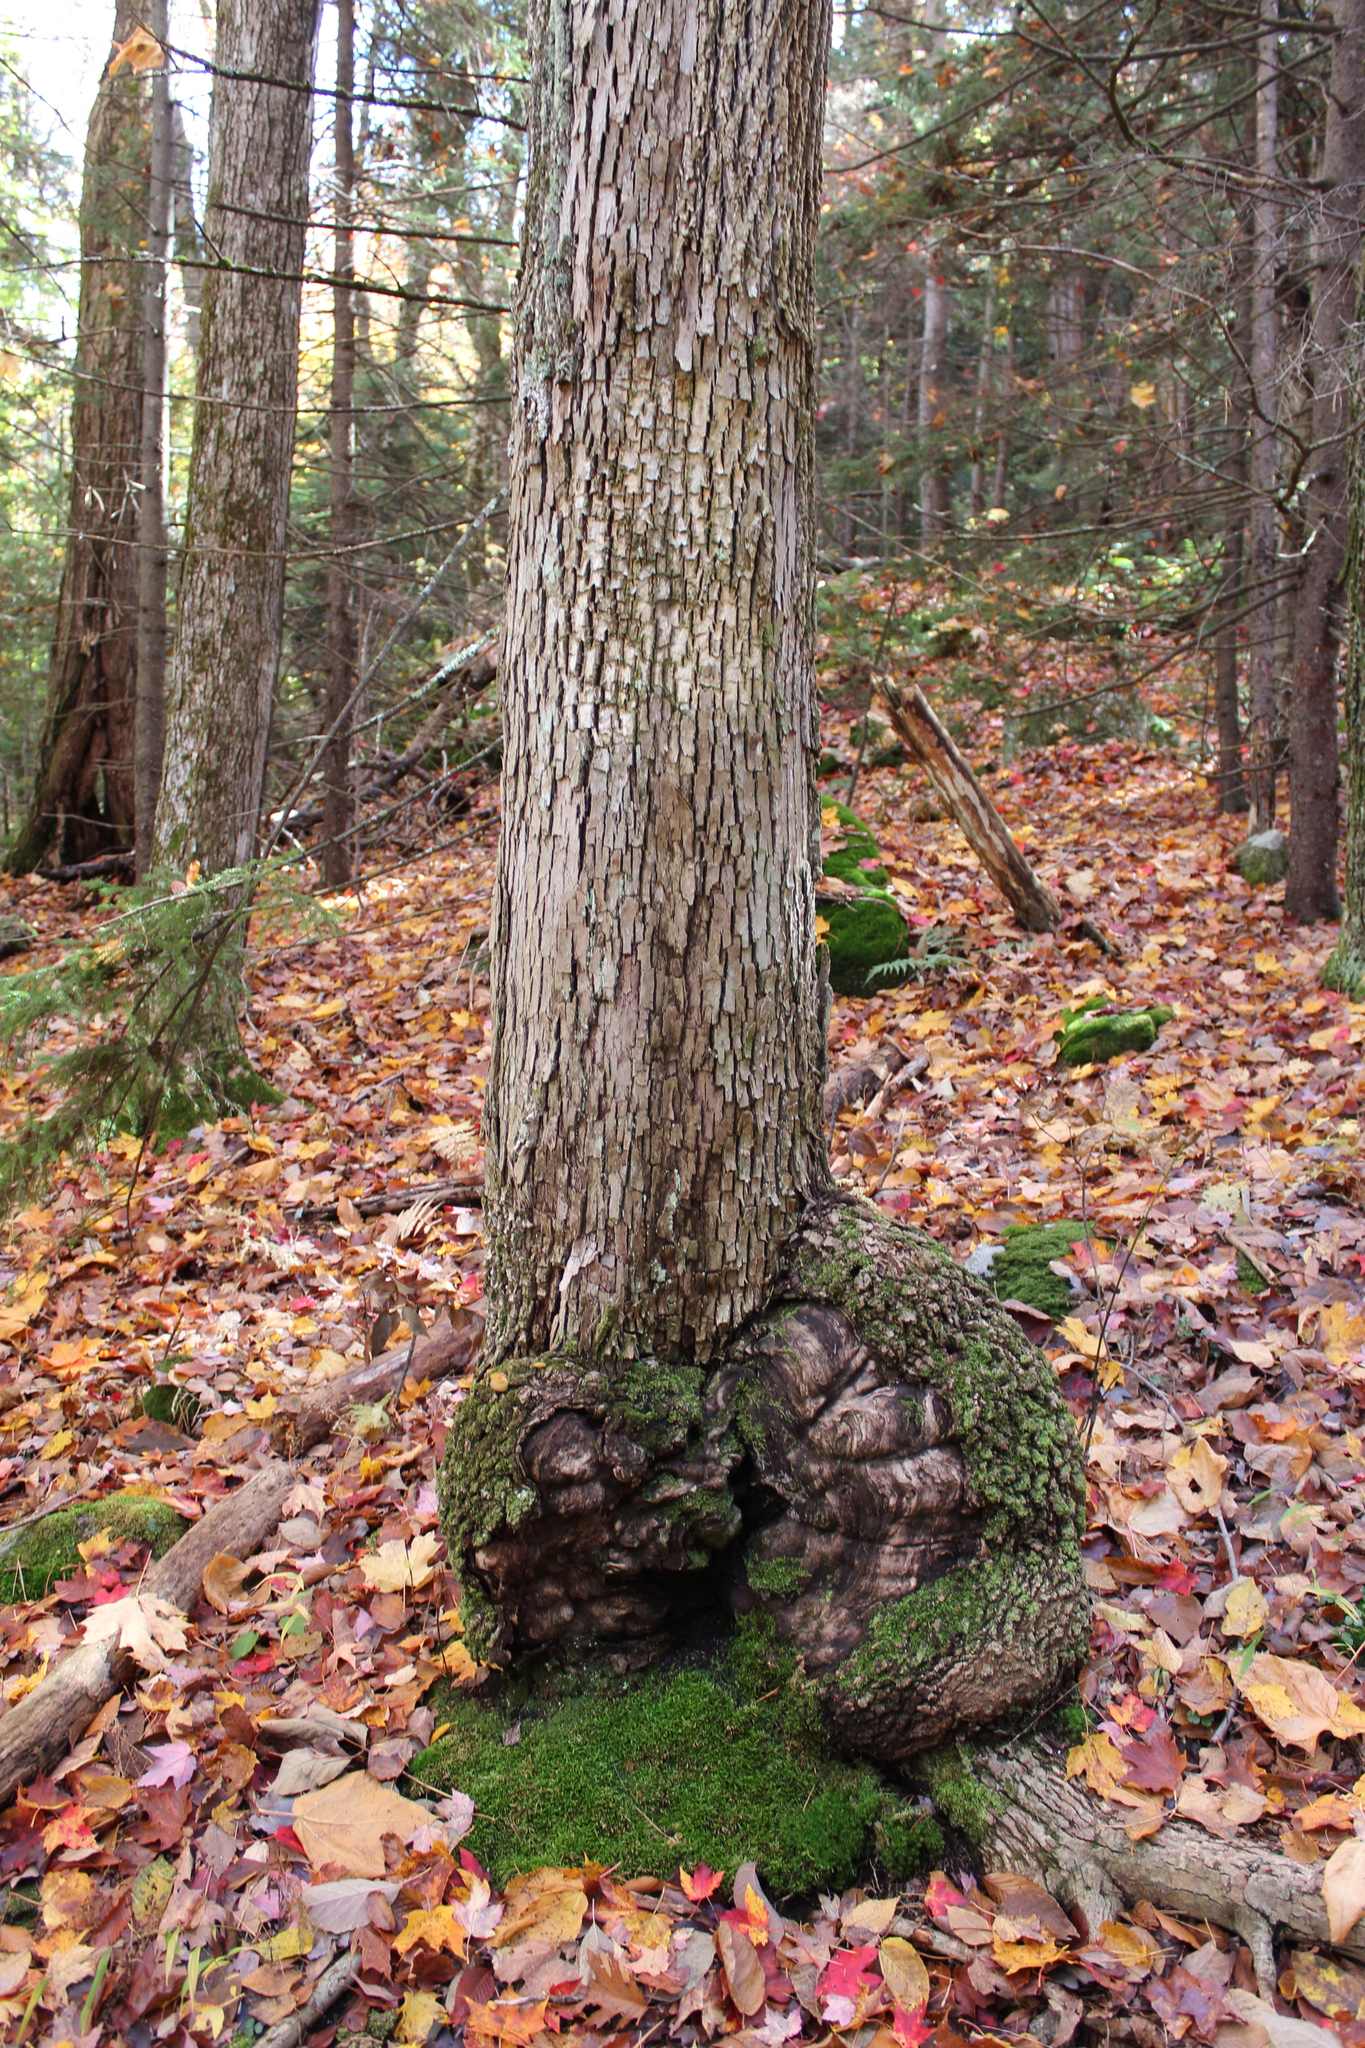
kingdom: Plantae
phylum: Tracheophyta
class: Magnoliopsida
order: Lamiales
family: Oleaceae
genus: Fraxinus
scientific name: Fraxinus americana
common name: White ash
